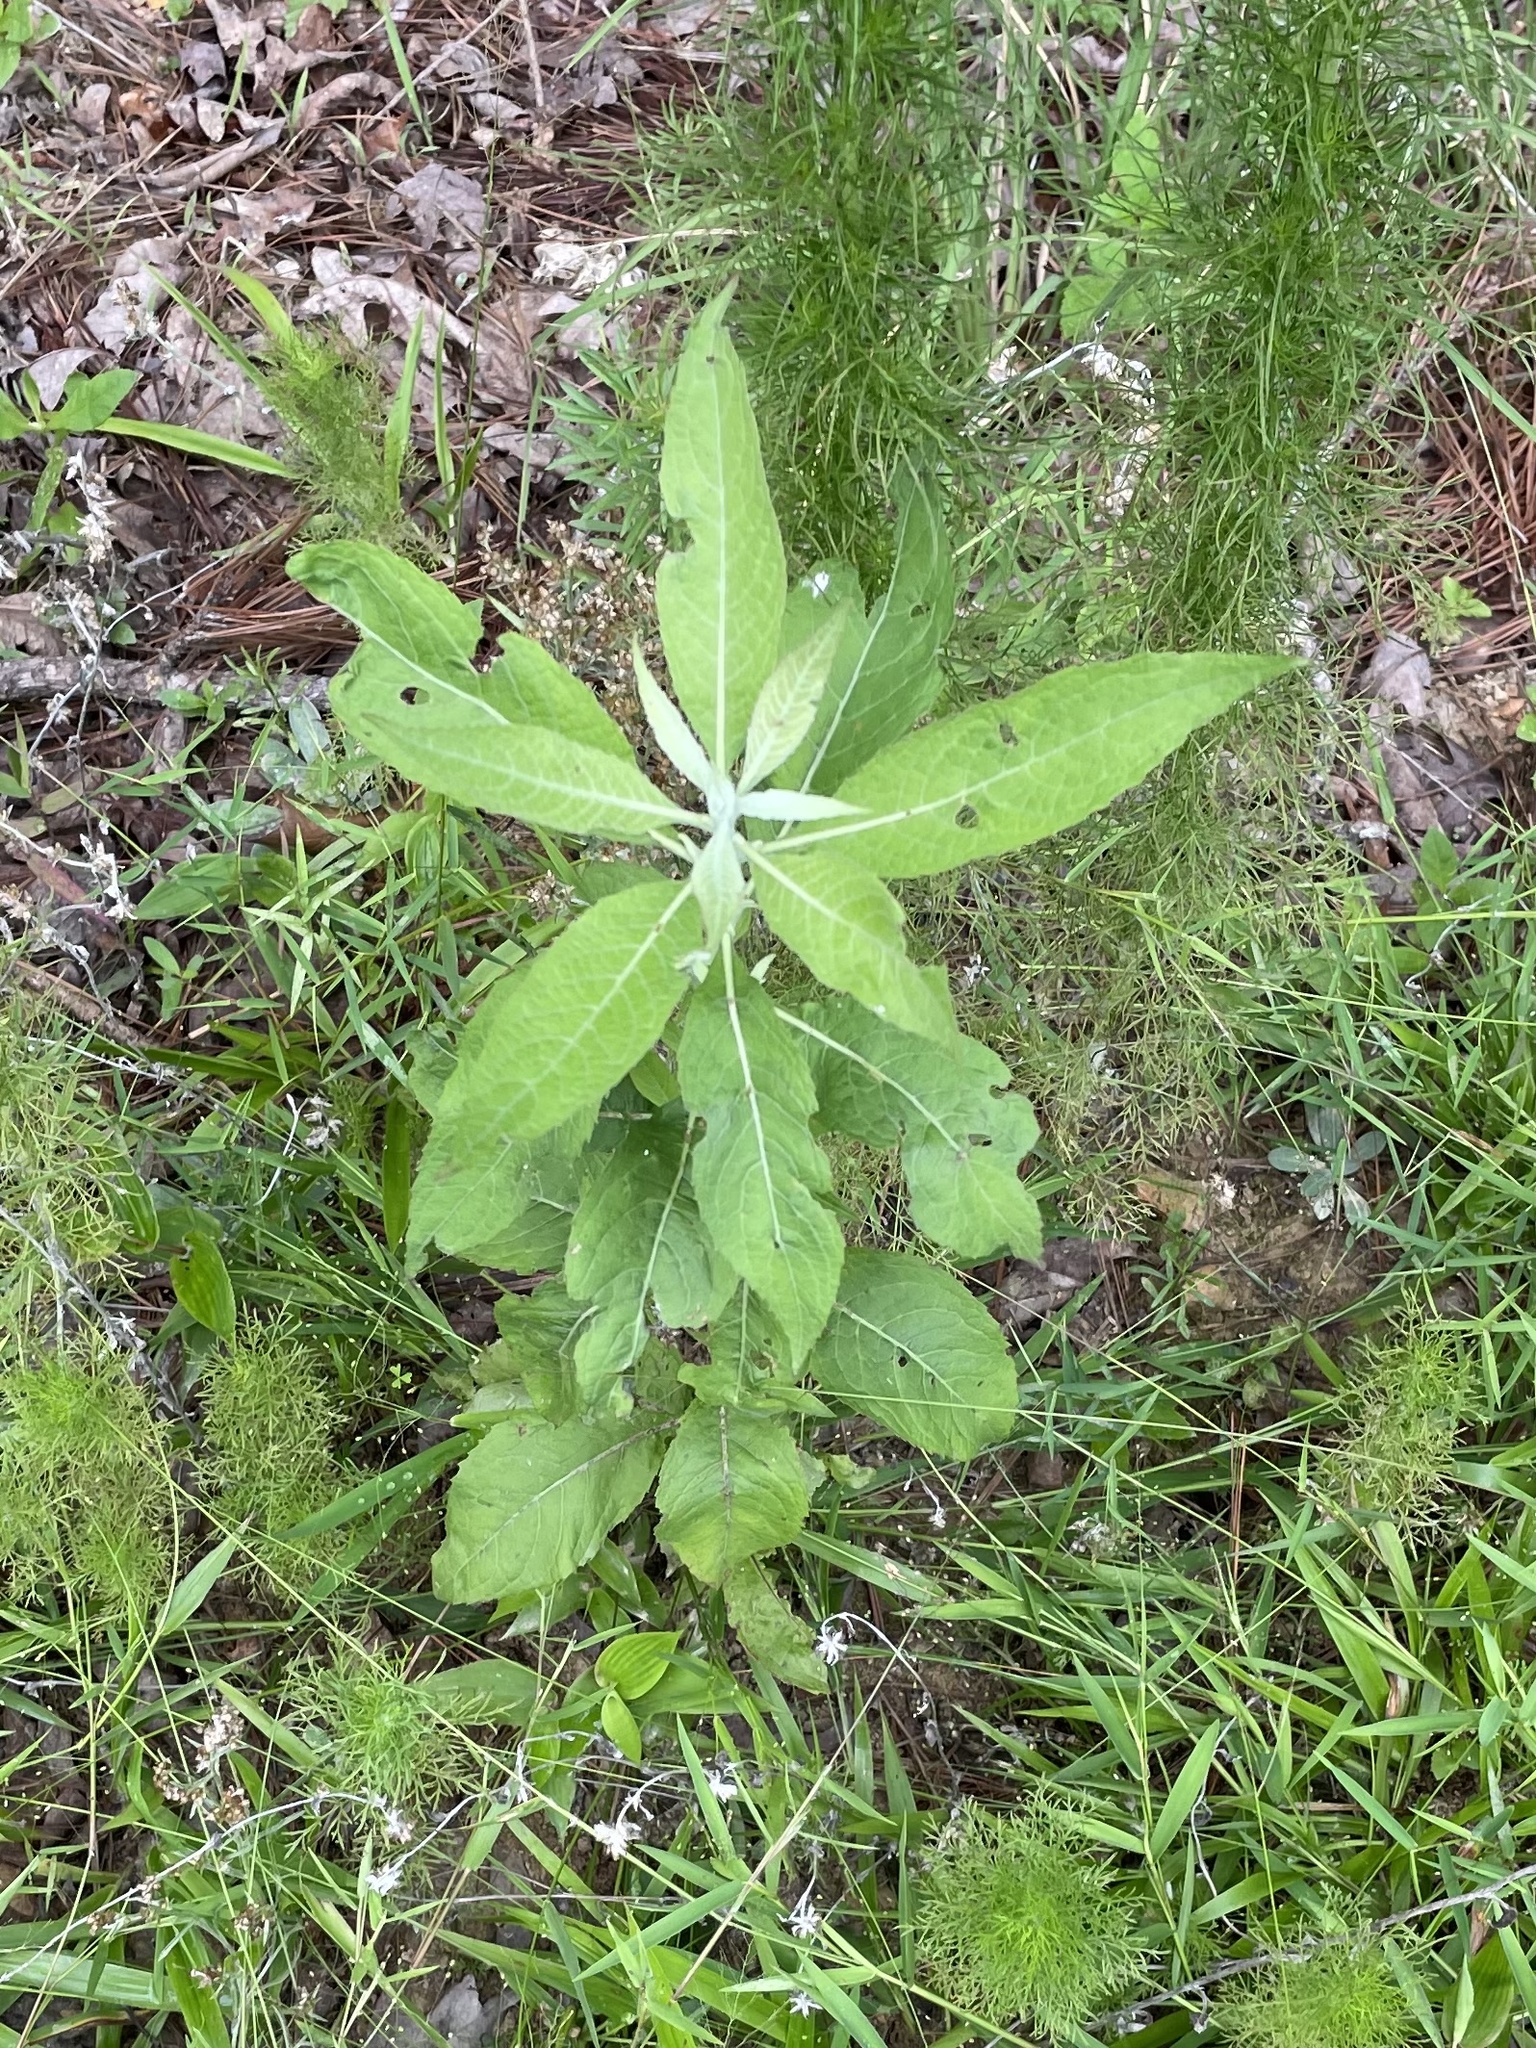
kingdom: Plantae
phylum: Tracheophyta
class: Magnoliopsida
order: Asterales
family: Asteraceae
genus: Pluchea
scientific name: Pluchea camphorata
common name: Camphor pluchea
